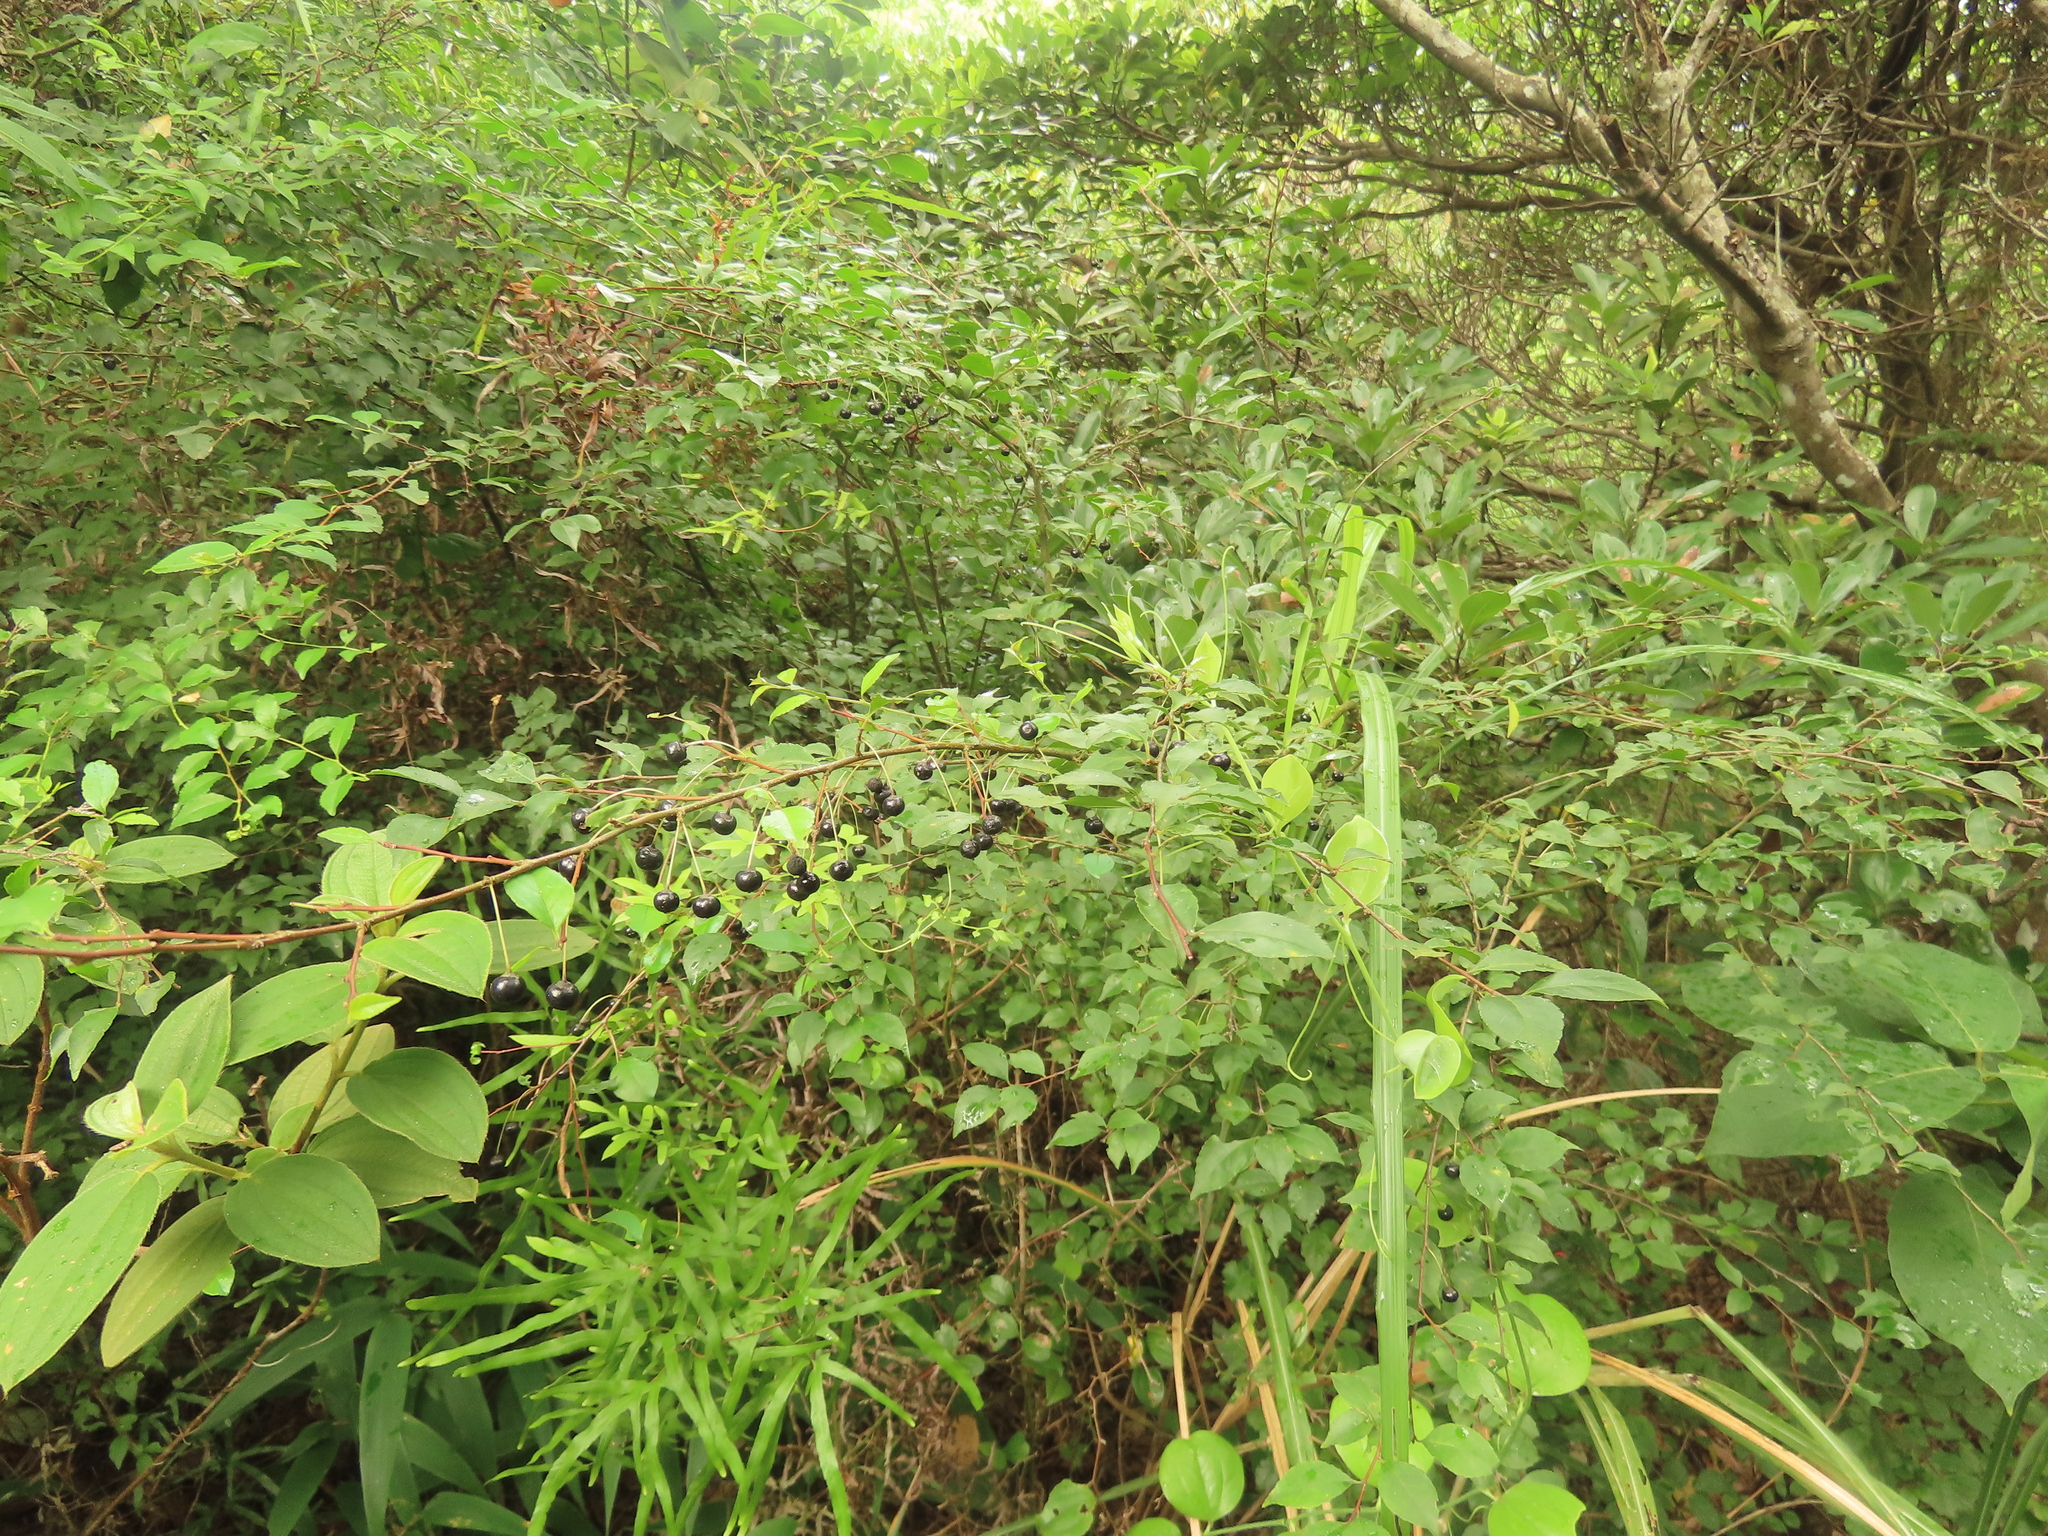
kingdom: Plantae
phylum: Tracheophyta
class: Magnoliopsida
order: Aquifoliales
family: Aquifoliaceae
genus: Ilex
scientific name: Ilex asprella
